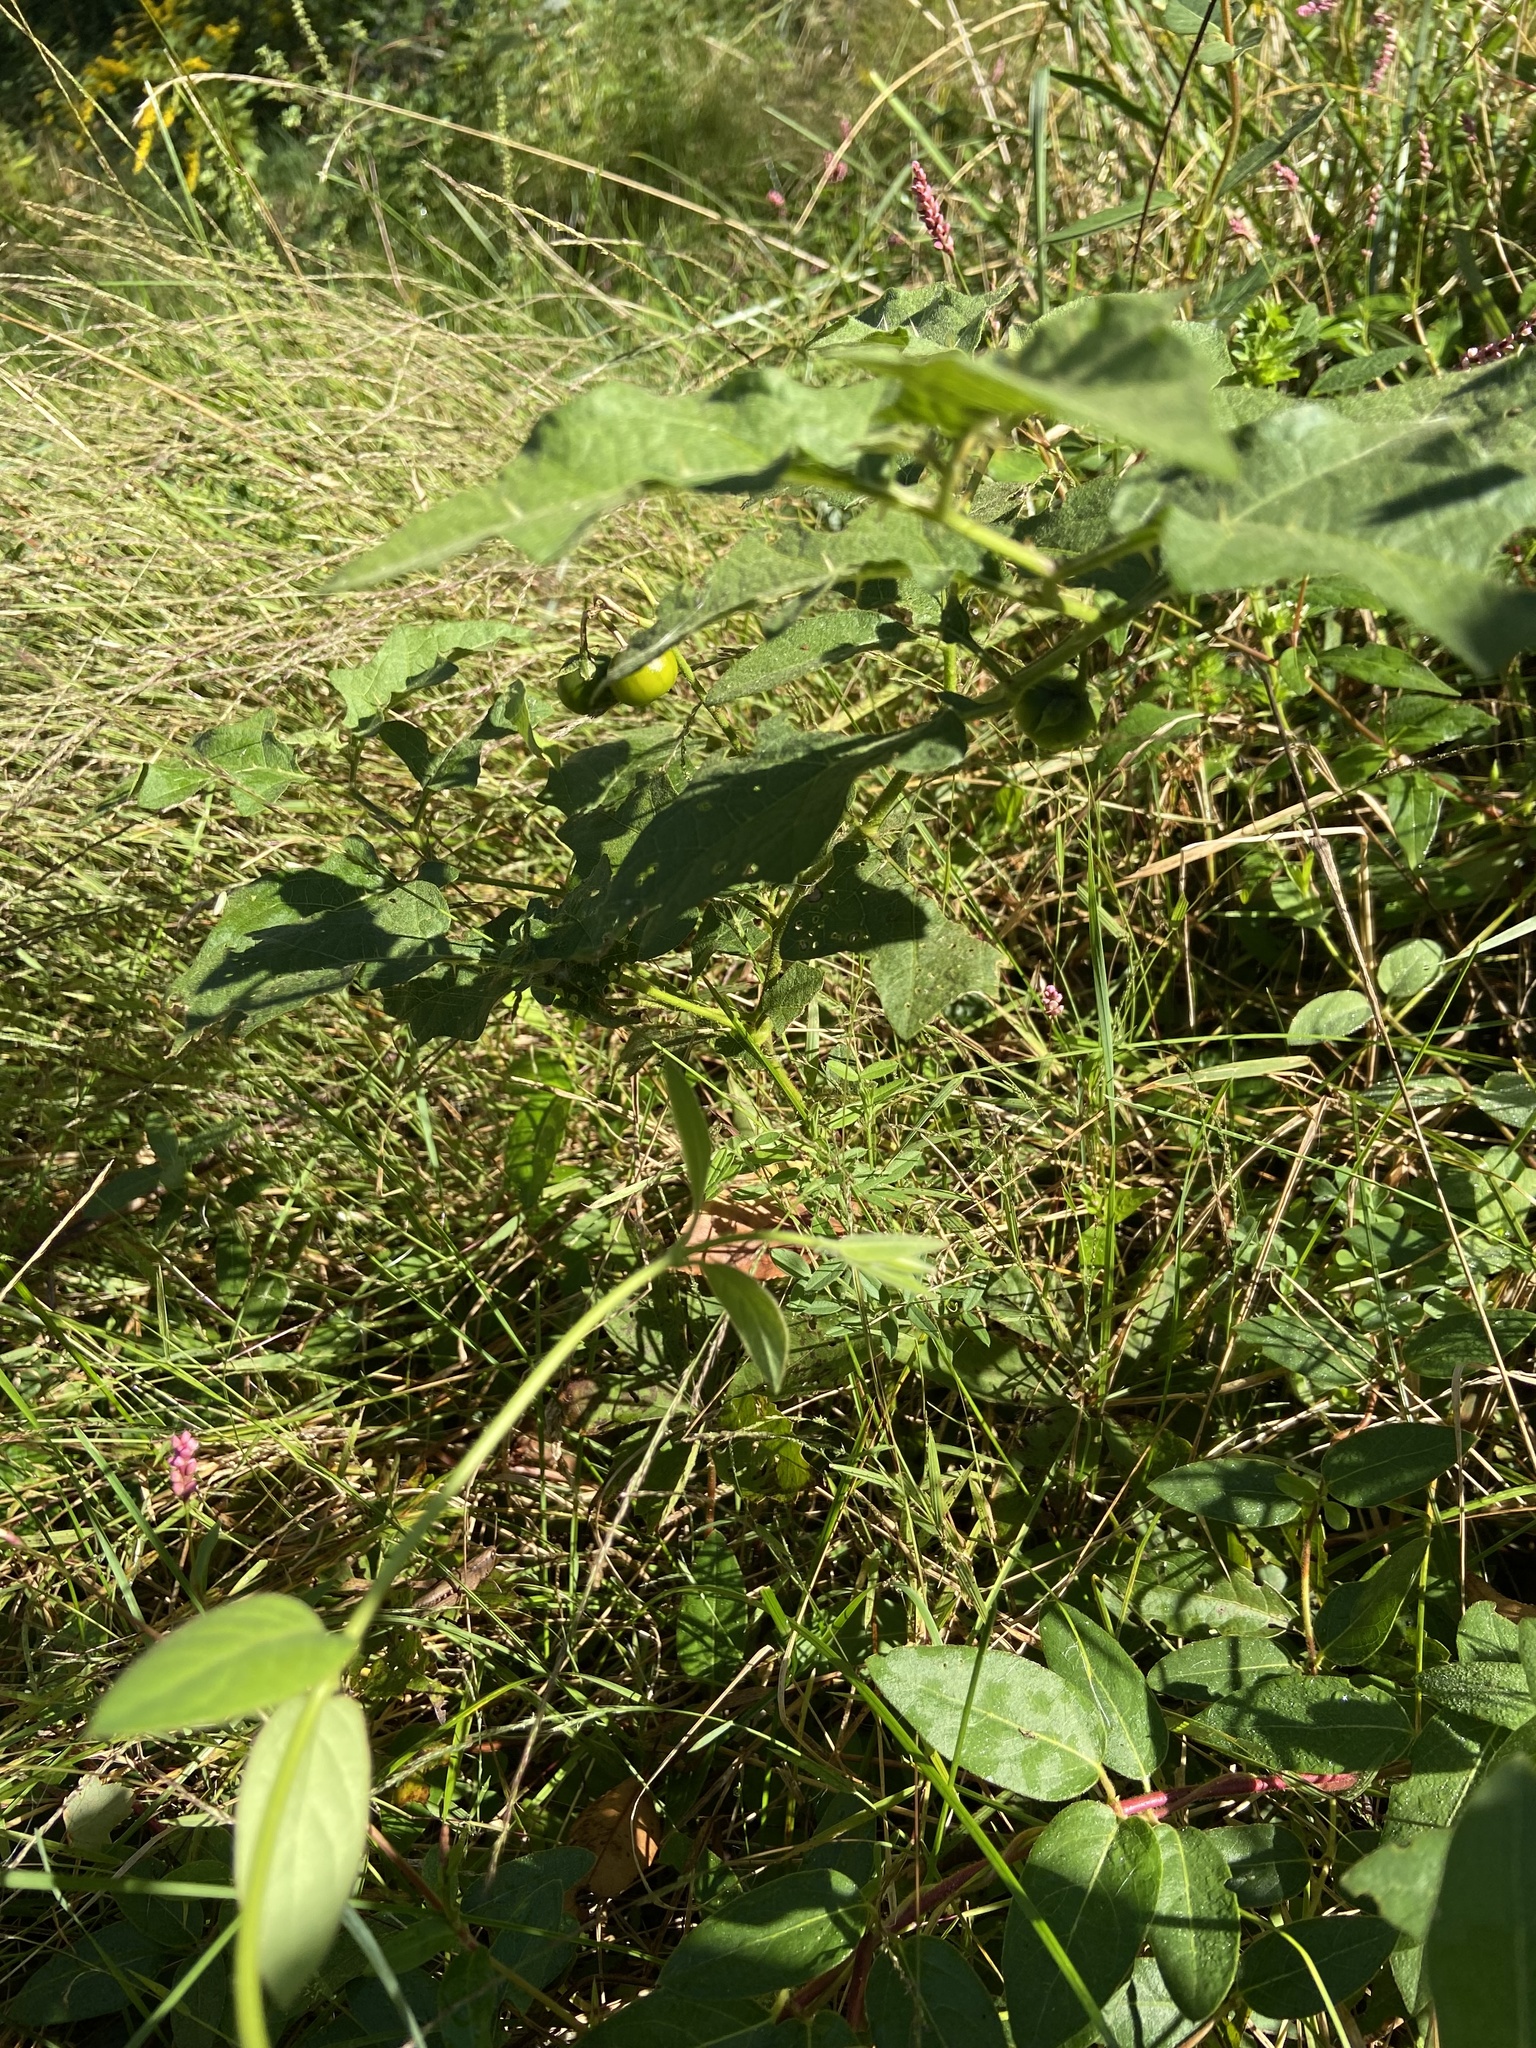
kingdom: Plantae
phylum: Tracheophyta
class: Magnoliopsida
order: Solanales
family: Solanaceae
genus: Solanum
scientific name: Solanum carolinense
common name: Horse-nettle
